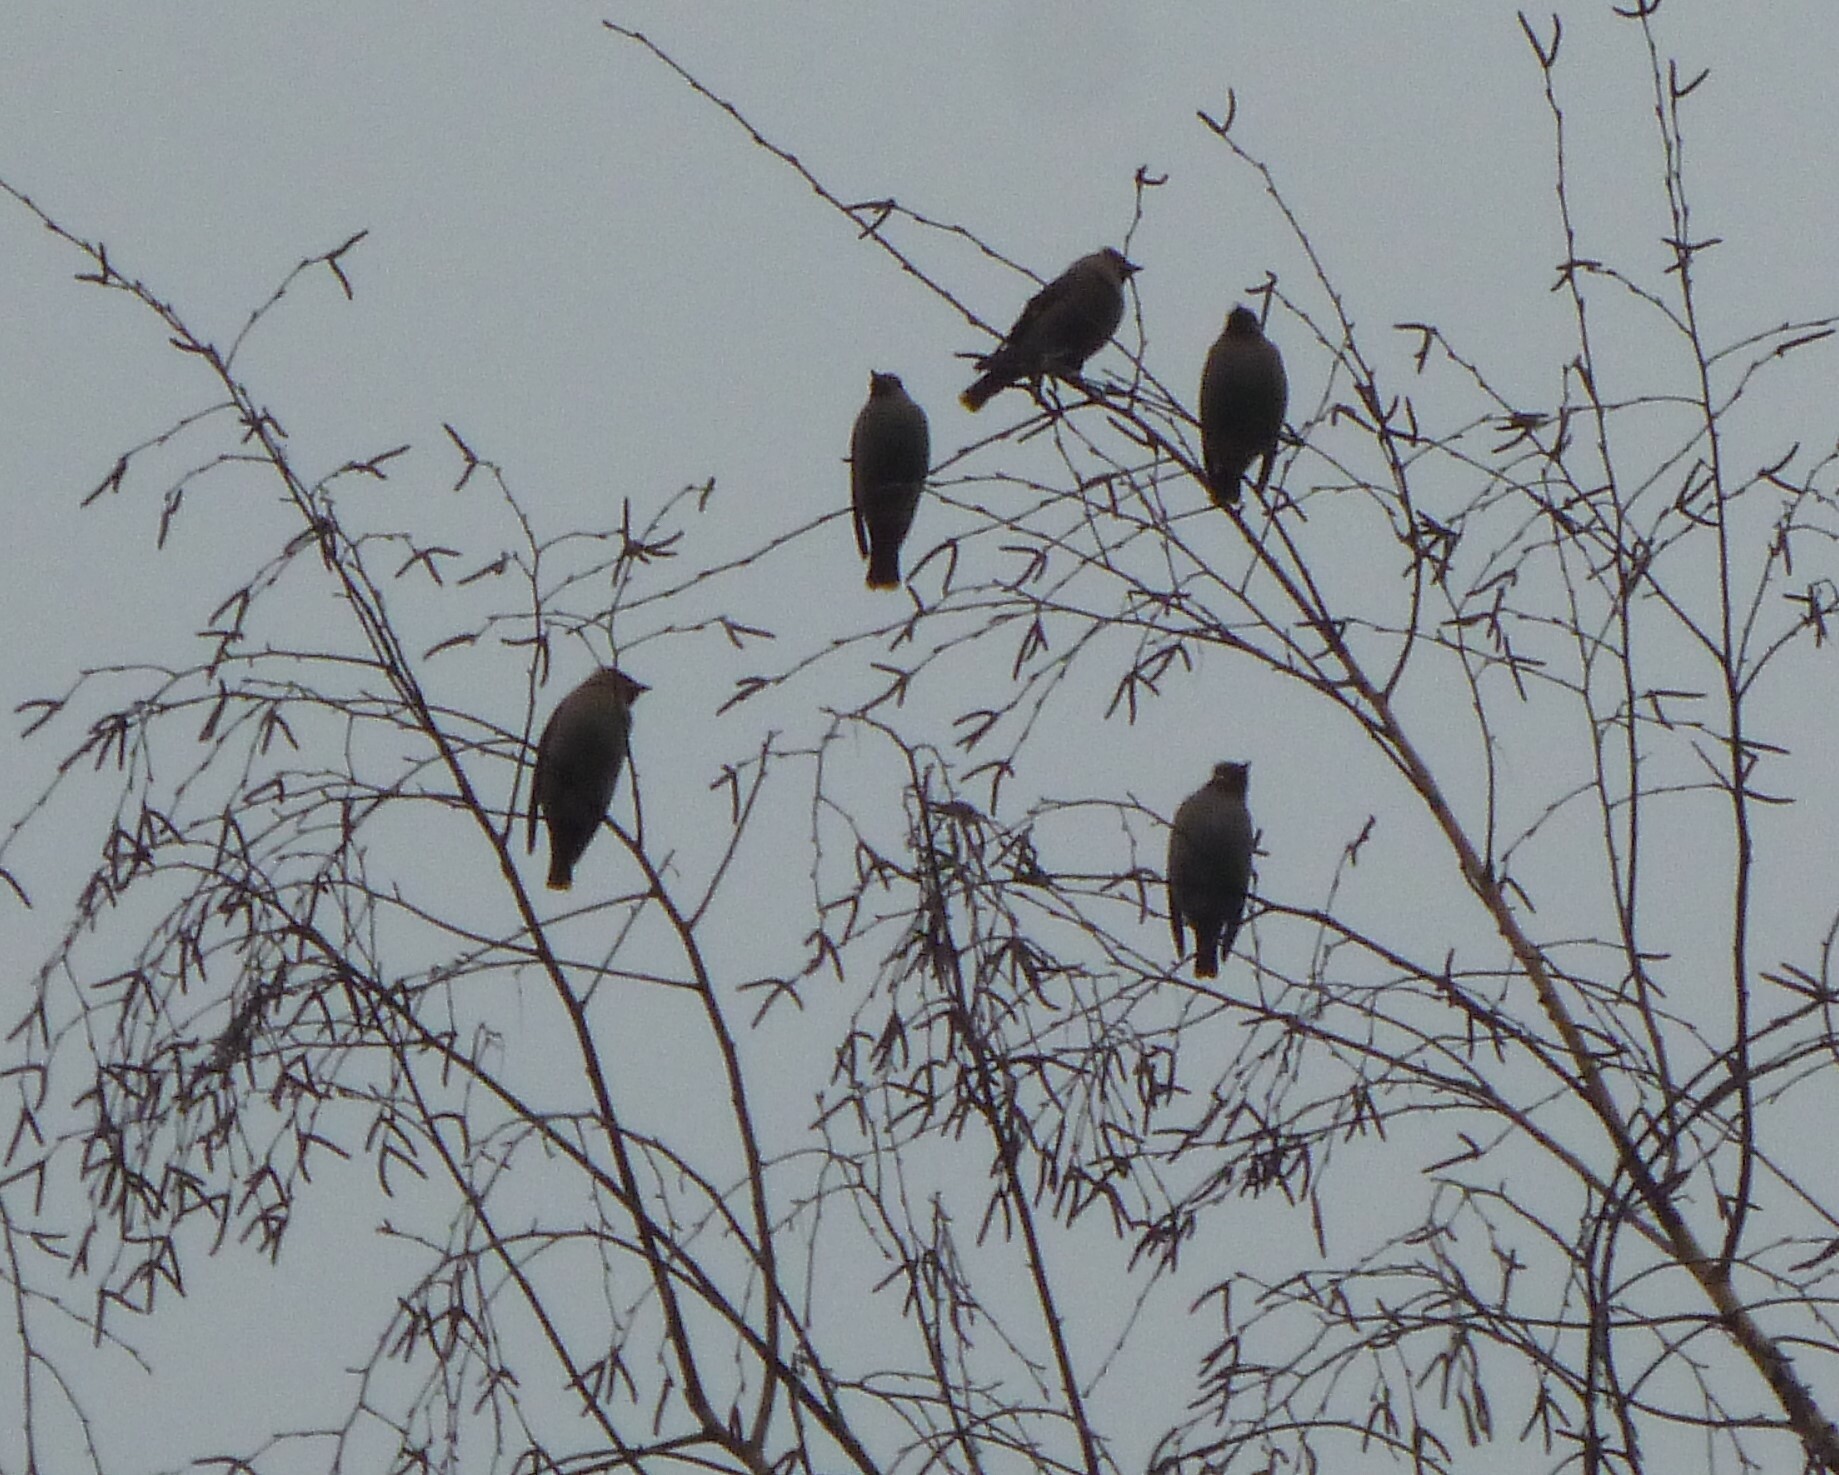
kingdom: Animalia
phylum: Chordata
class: Aves
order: Passeriformes
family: Bombycillidae
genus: Bombycilla
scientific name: Bombycilla garrulus
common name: Bohemian waxwing
